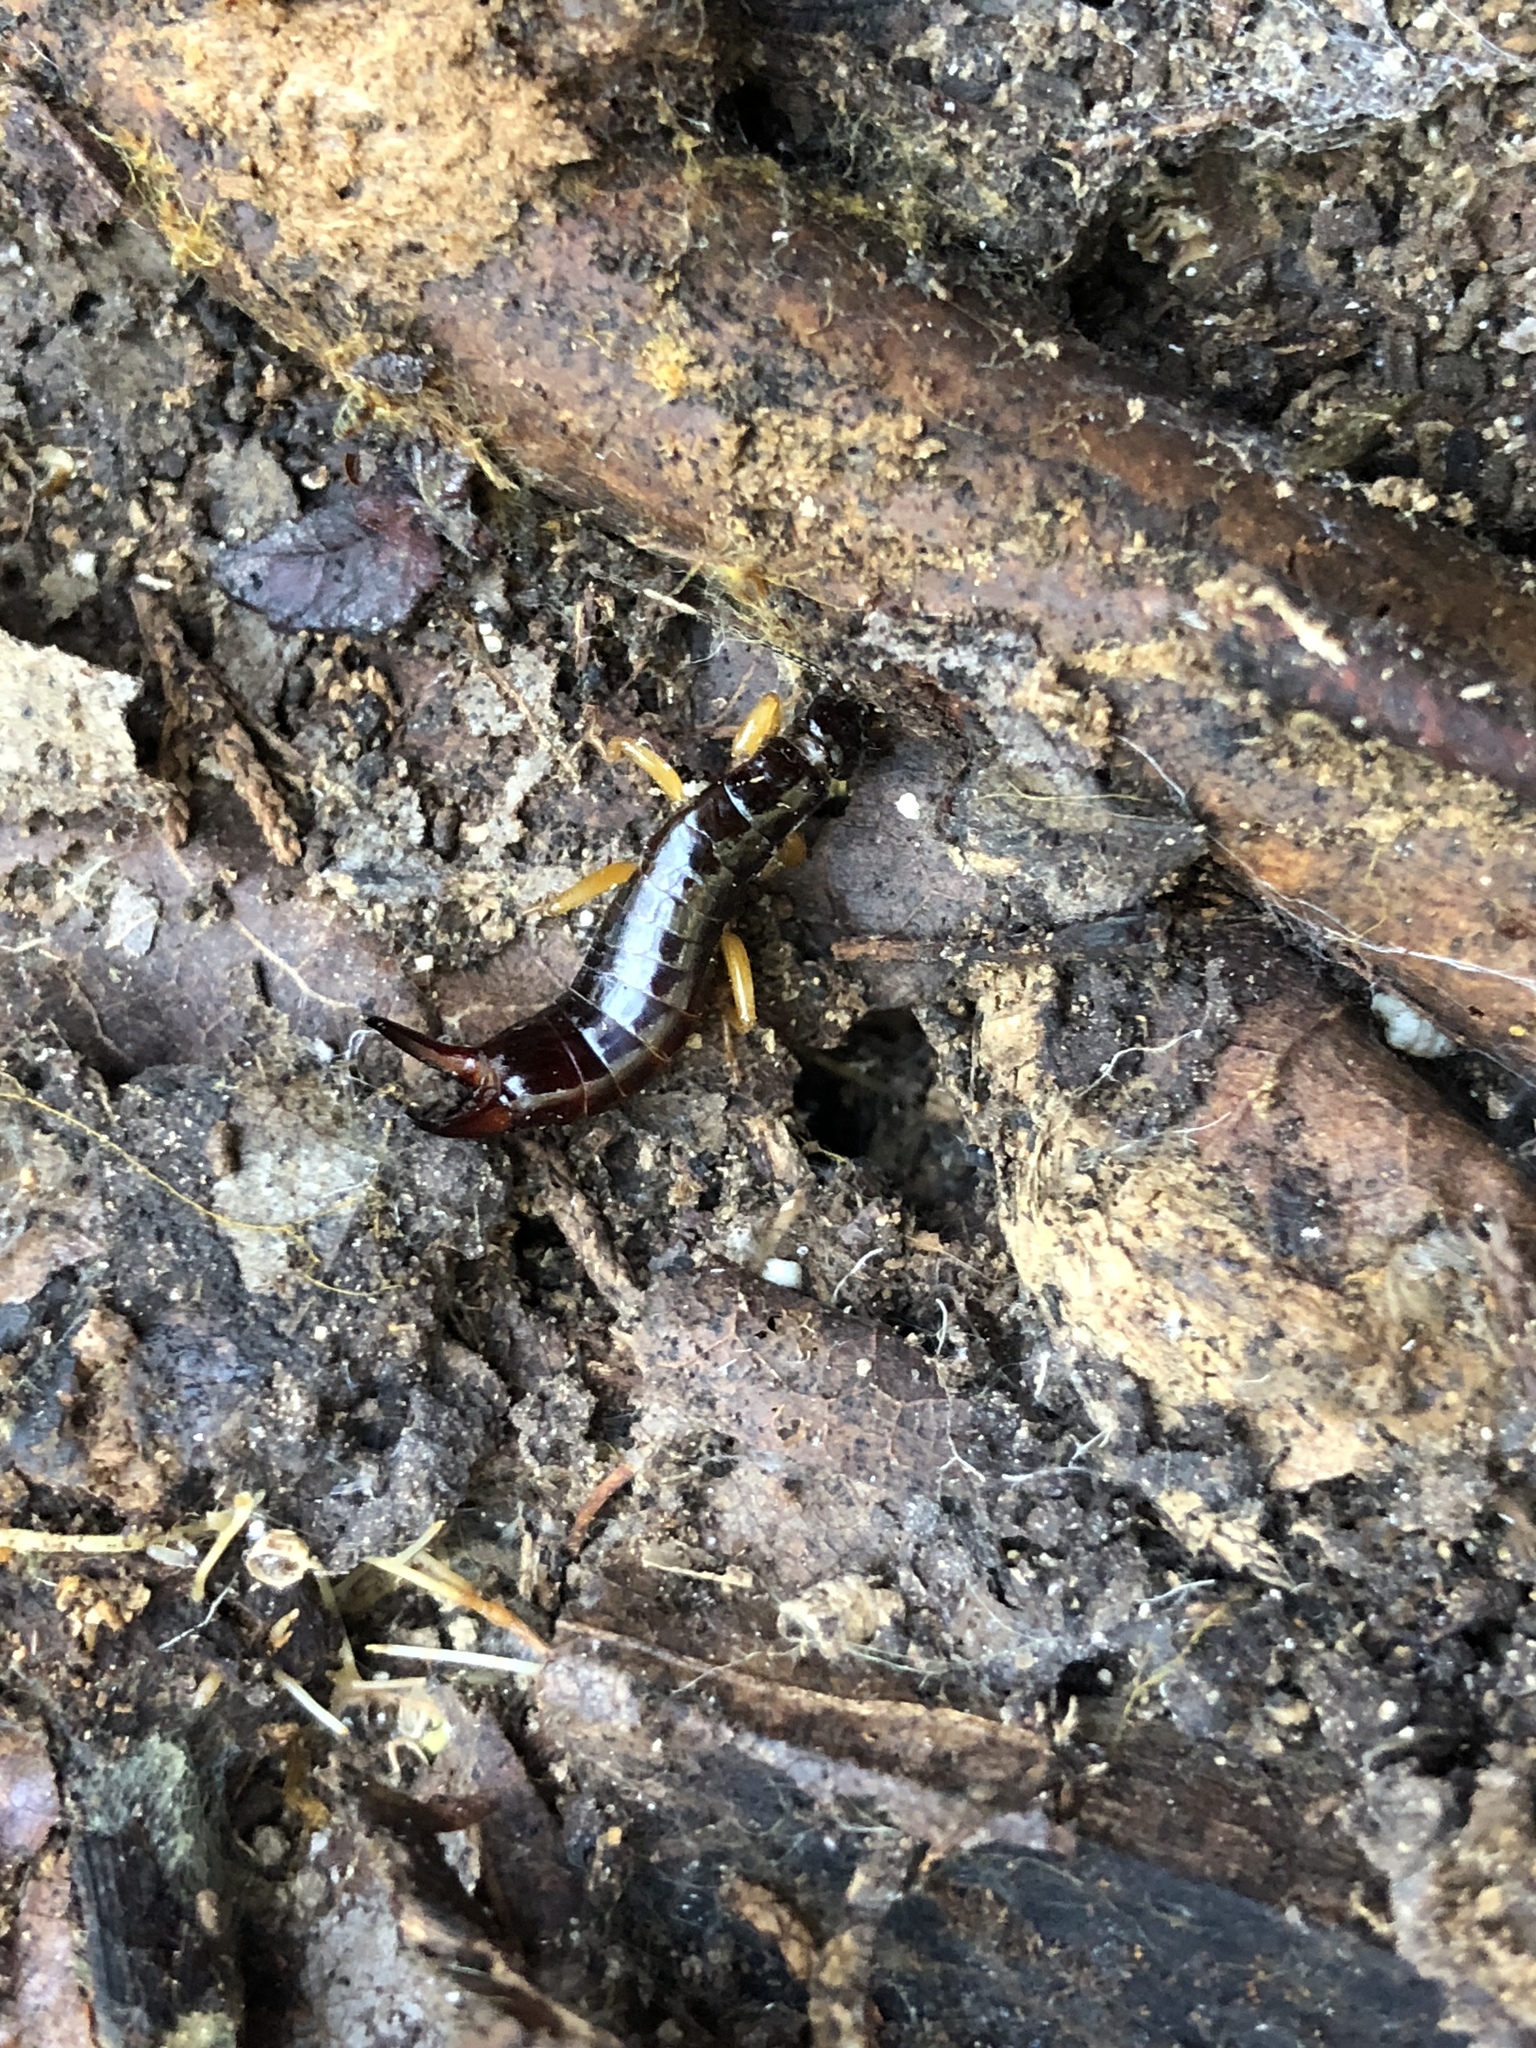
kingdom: Animalia
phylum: Arthropoda
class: Insecta
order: Dermaptera
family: Anisolabididae
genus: Euborellia
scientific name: Euborellia annulipes
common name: Ringlegged earwig
